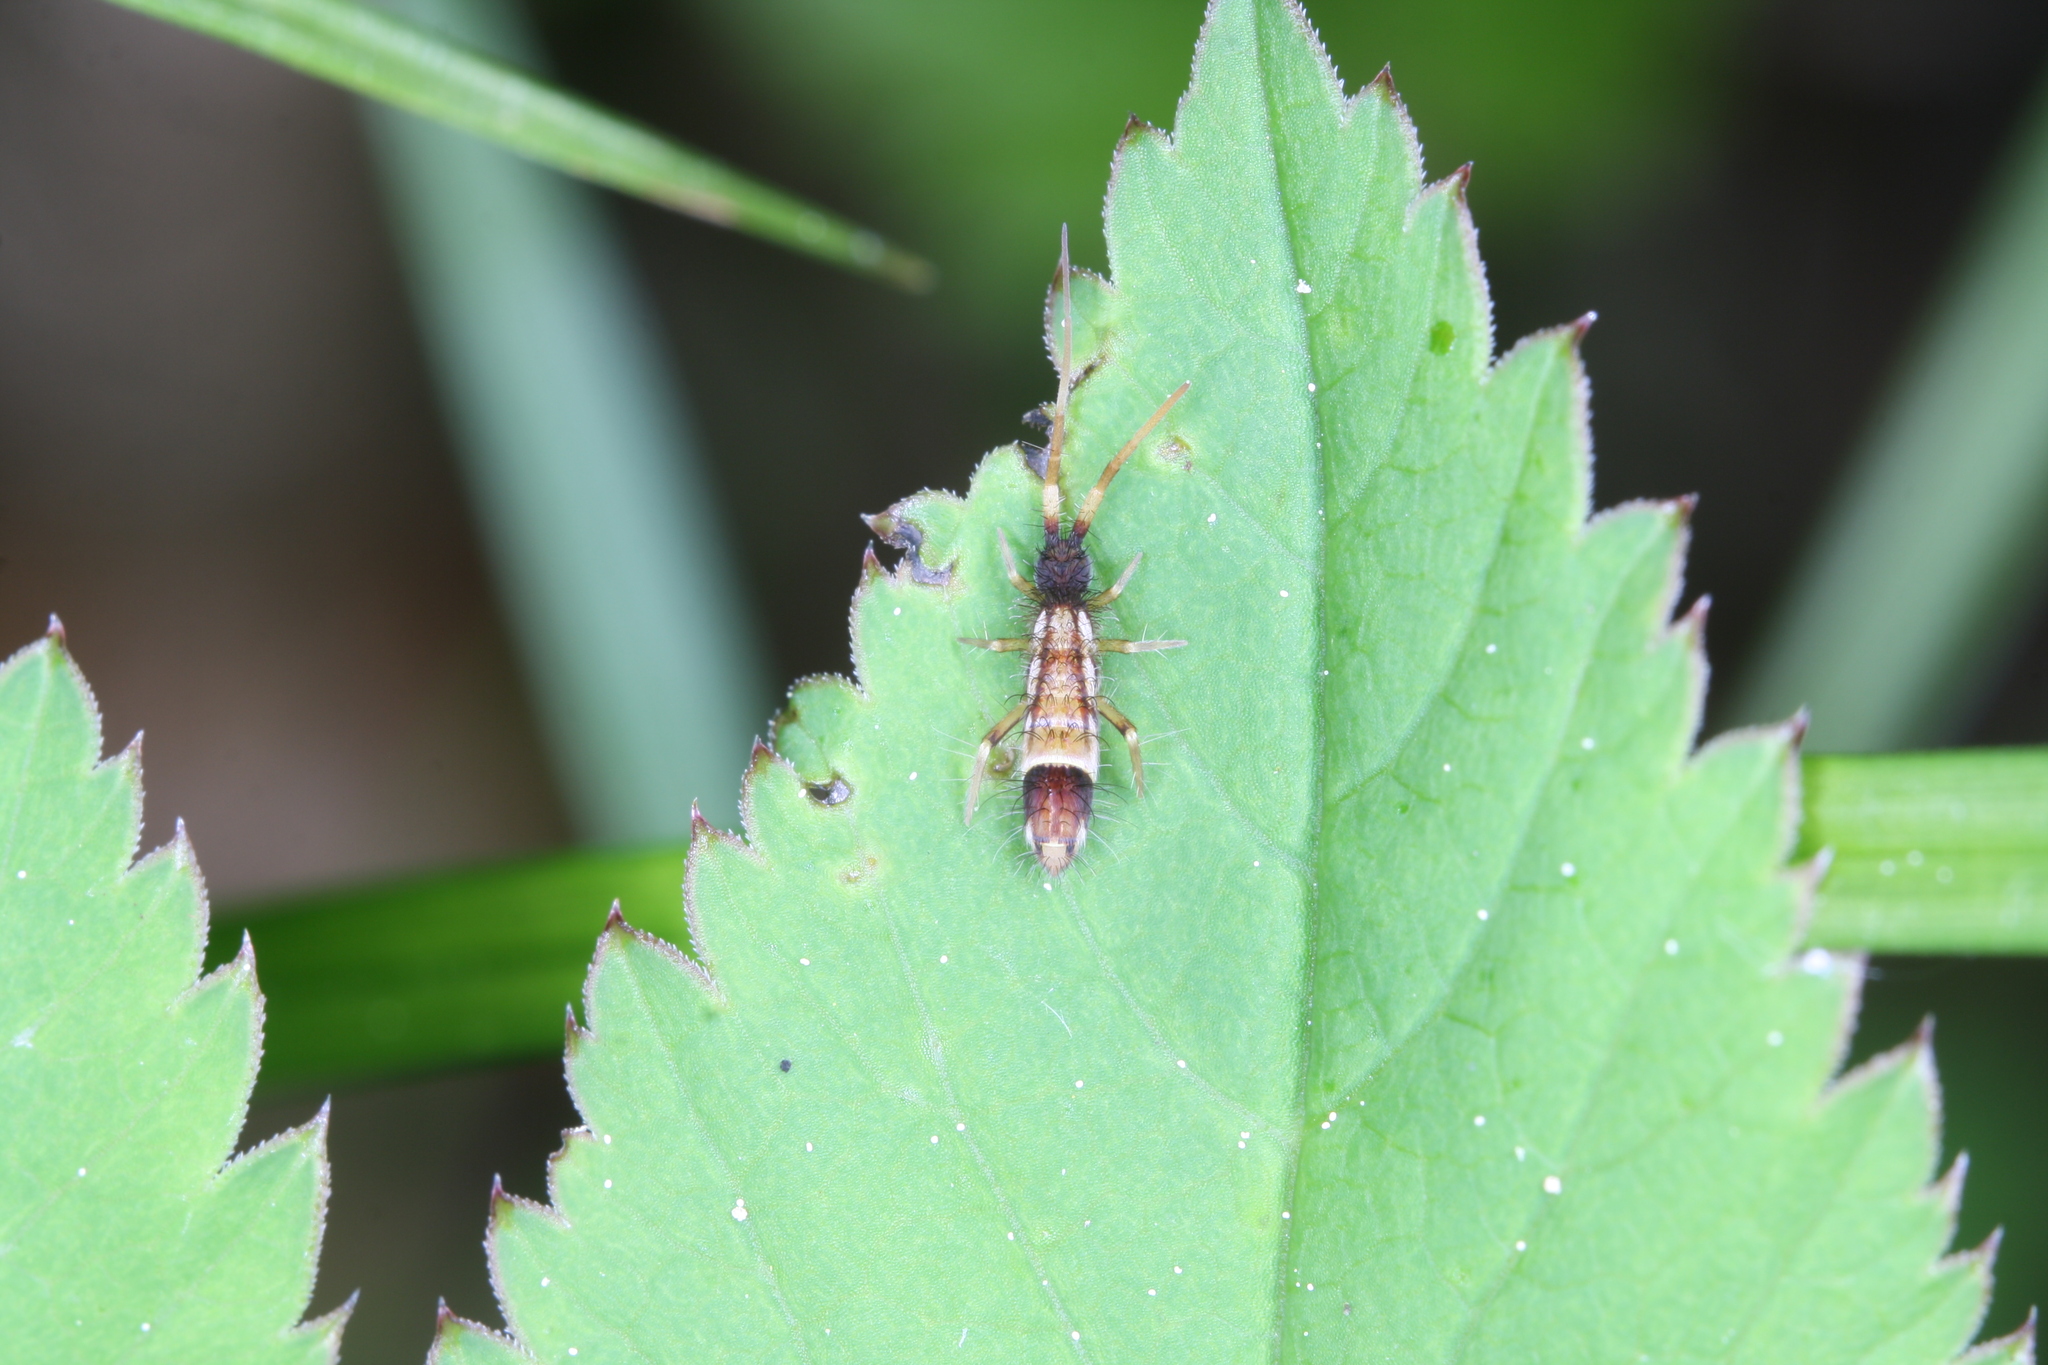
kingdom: Animalia
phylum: Arthropoda
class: Collembola
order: Entomobryomorpha
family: Entomobryidae
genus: Entomobrya
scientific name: Entomobrya nivalis
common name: Cosmopolitan springtail
